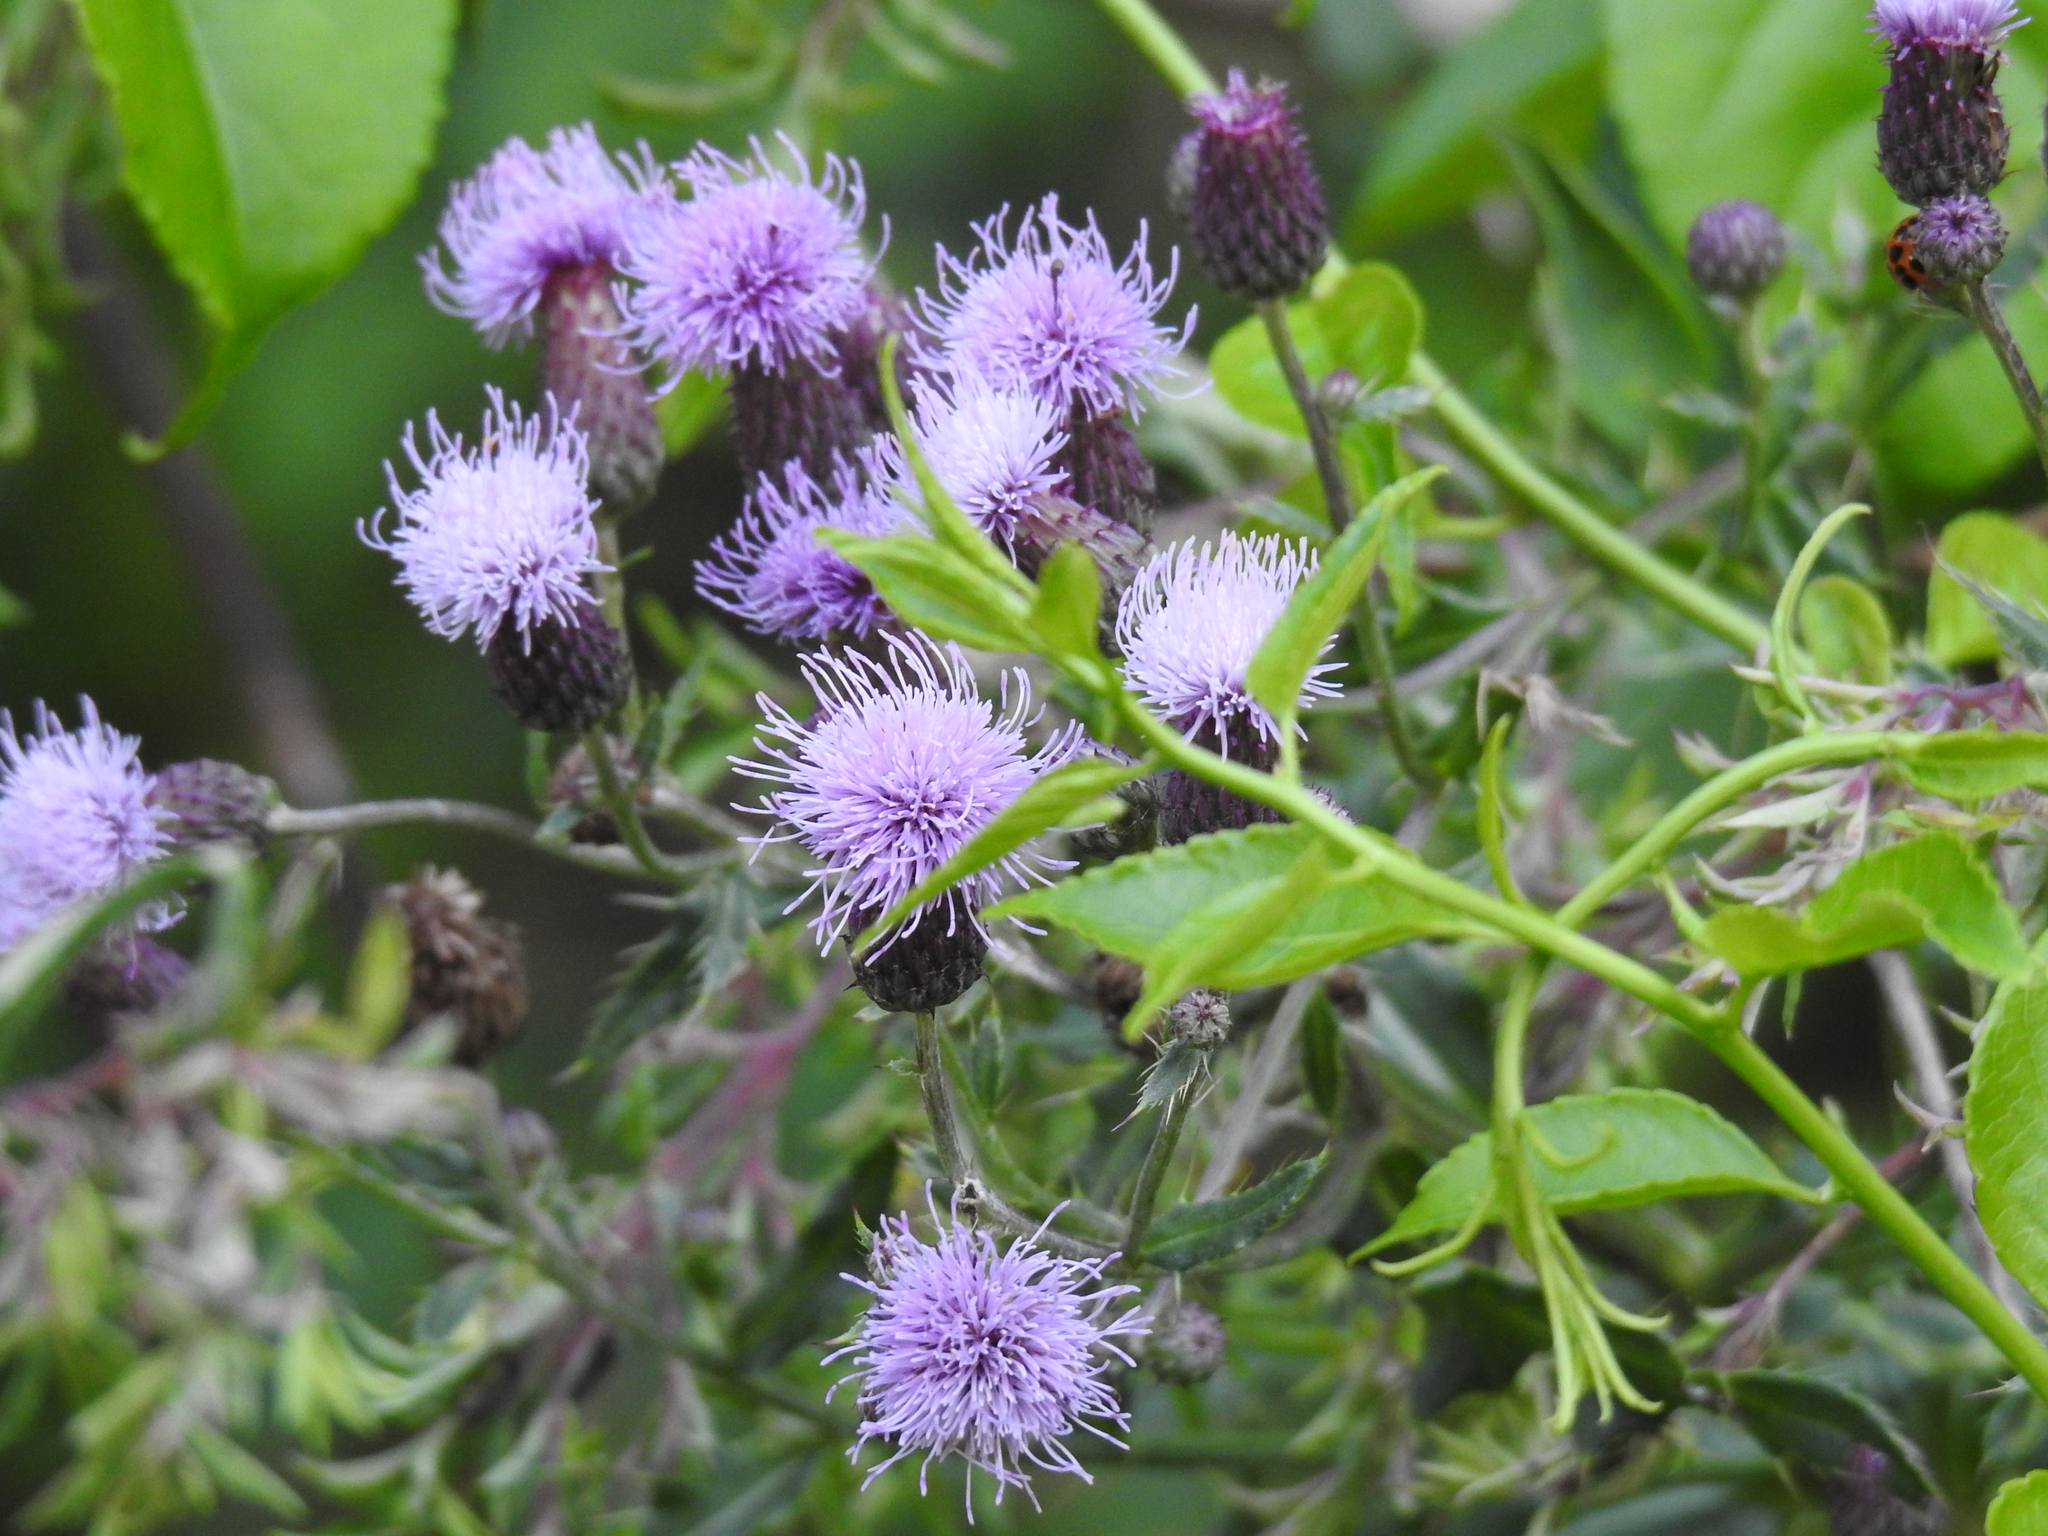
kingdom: Plantae
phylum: Tracheophyta
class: Magnoliopsida
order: Asterales
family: Asteraceae
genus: Cirsium
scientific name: Cirsium arvense
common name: Creeping thistle
